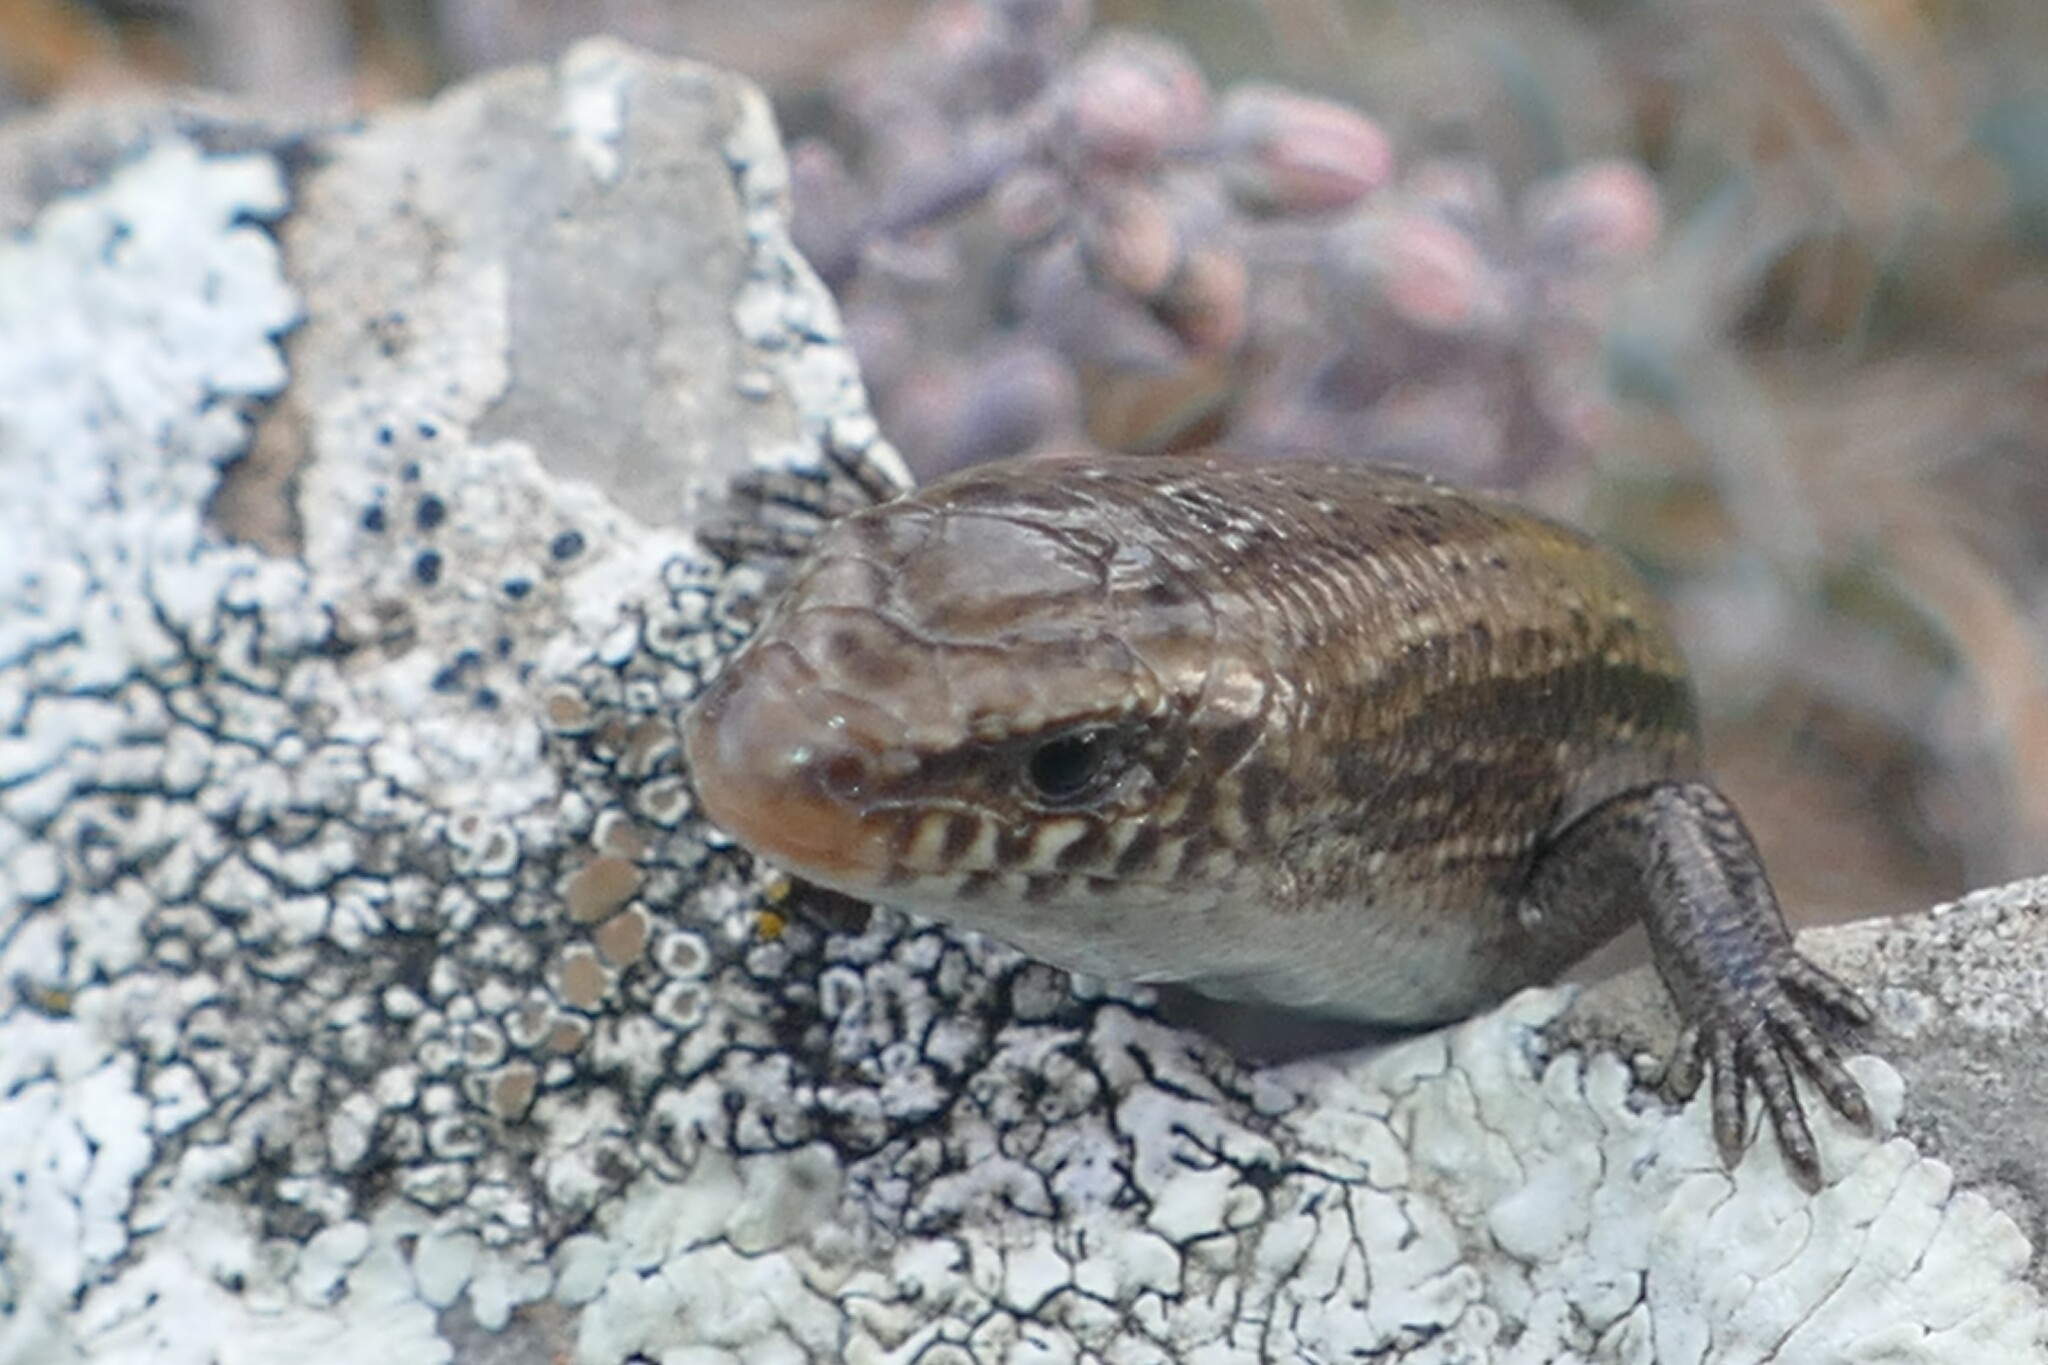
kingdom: Animalia
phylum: Chordata
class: Squamata
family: Scincidae
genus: Chalcides
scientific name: Chalcides bedriagai
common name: Spanish cylindrical skink
